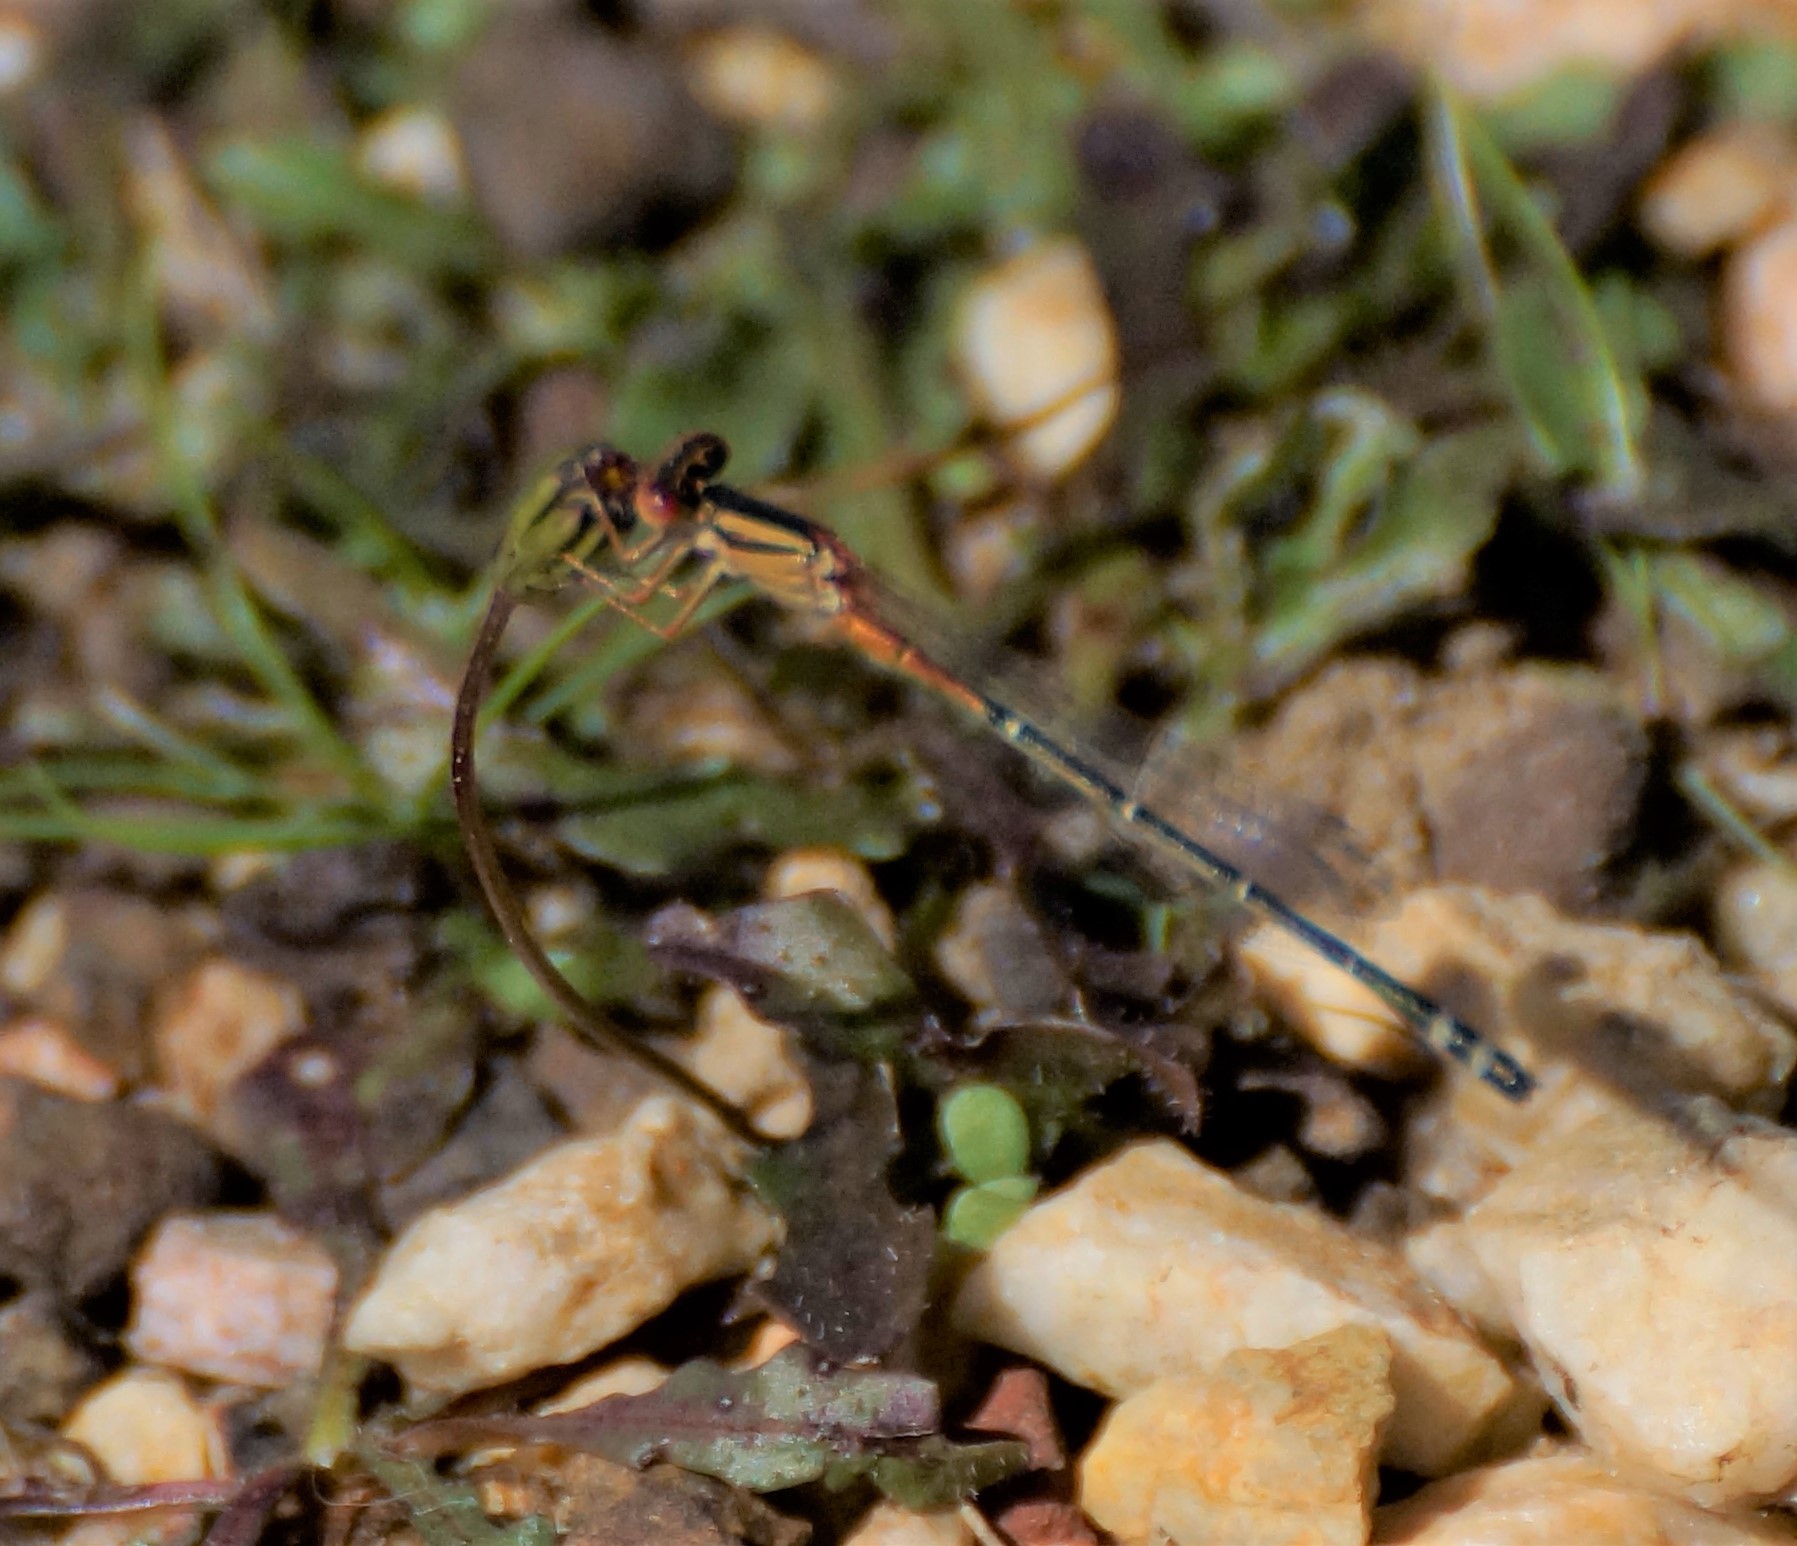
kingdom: Animalia
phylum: Arthropoda
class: Insecta
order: Odonata
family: Coenagrionidae
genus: Xanthagrion
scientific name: Xanthagrion erythroneurum
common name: Red and blue damsel
